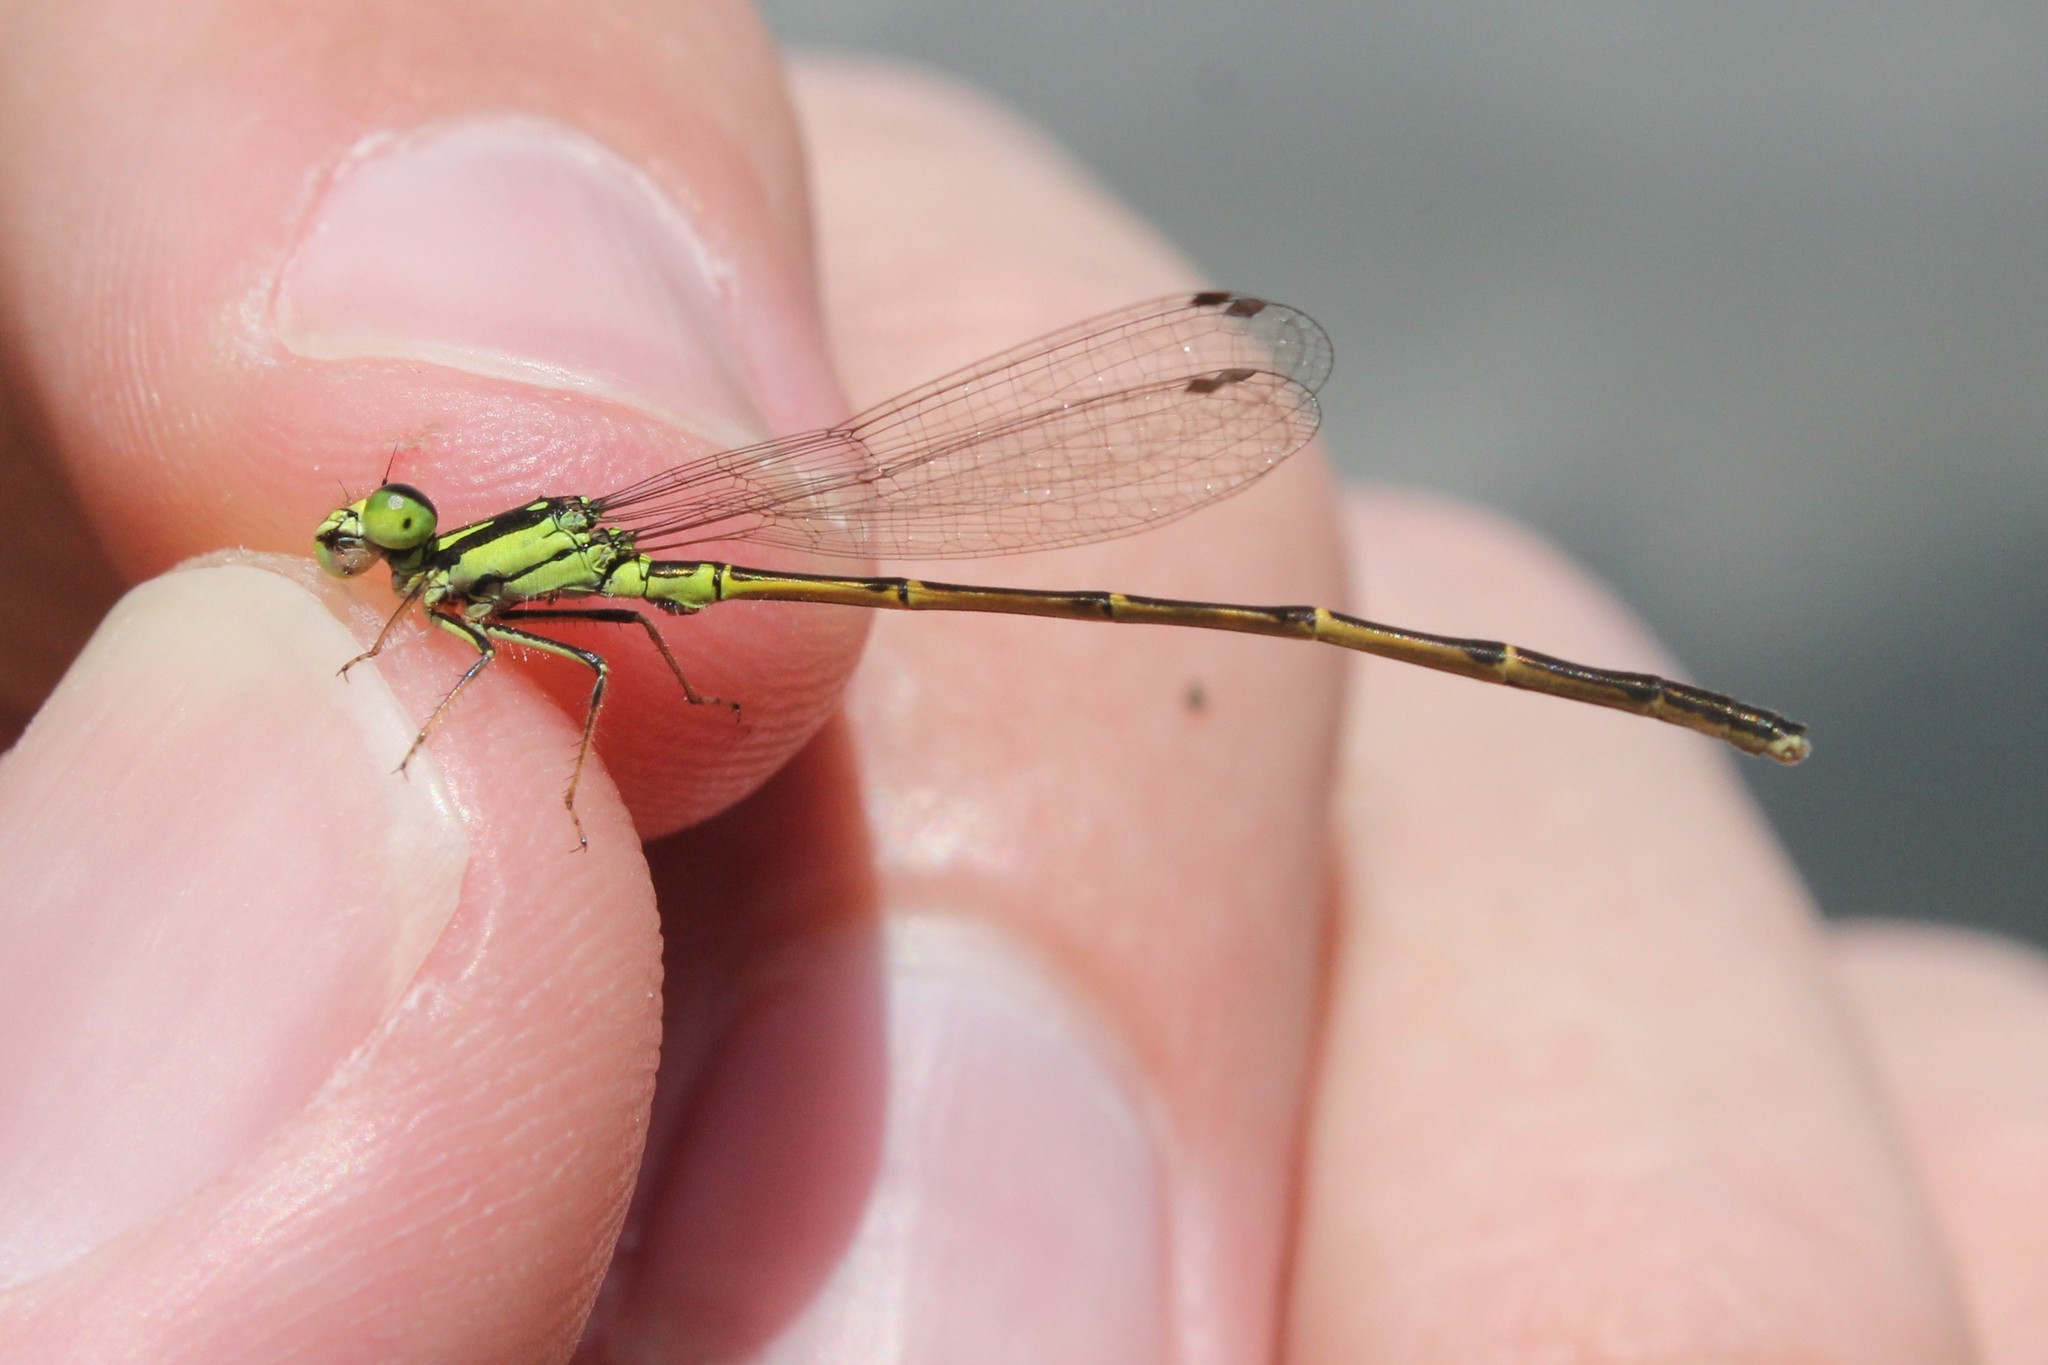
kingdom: Animalia
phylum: Arthropoda
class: Insecta
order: Odonata
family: Coenagrionidae
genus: Ischnura
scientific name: Ischnura posita
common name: Fragile forktail
